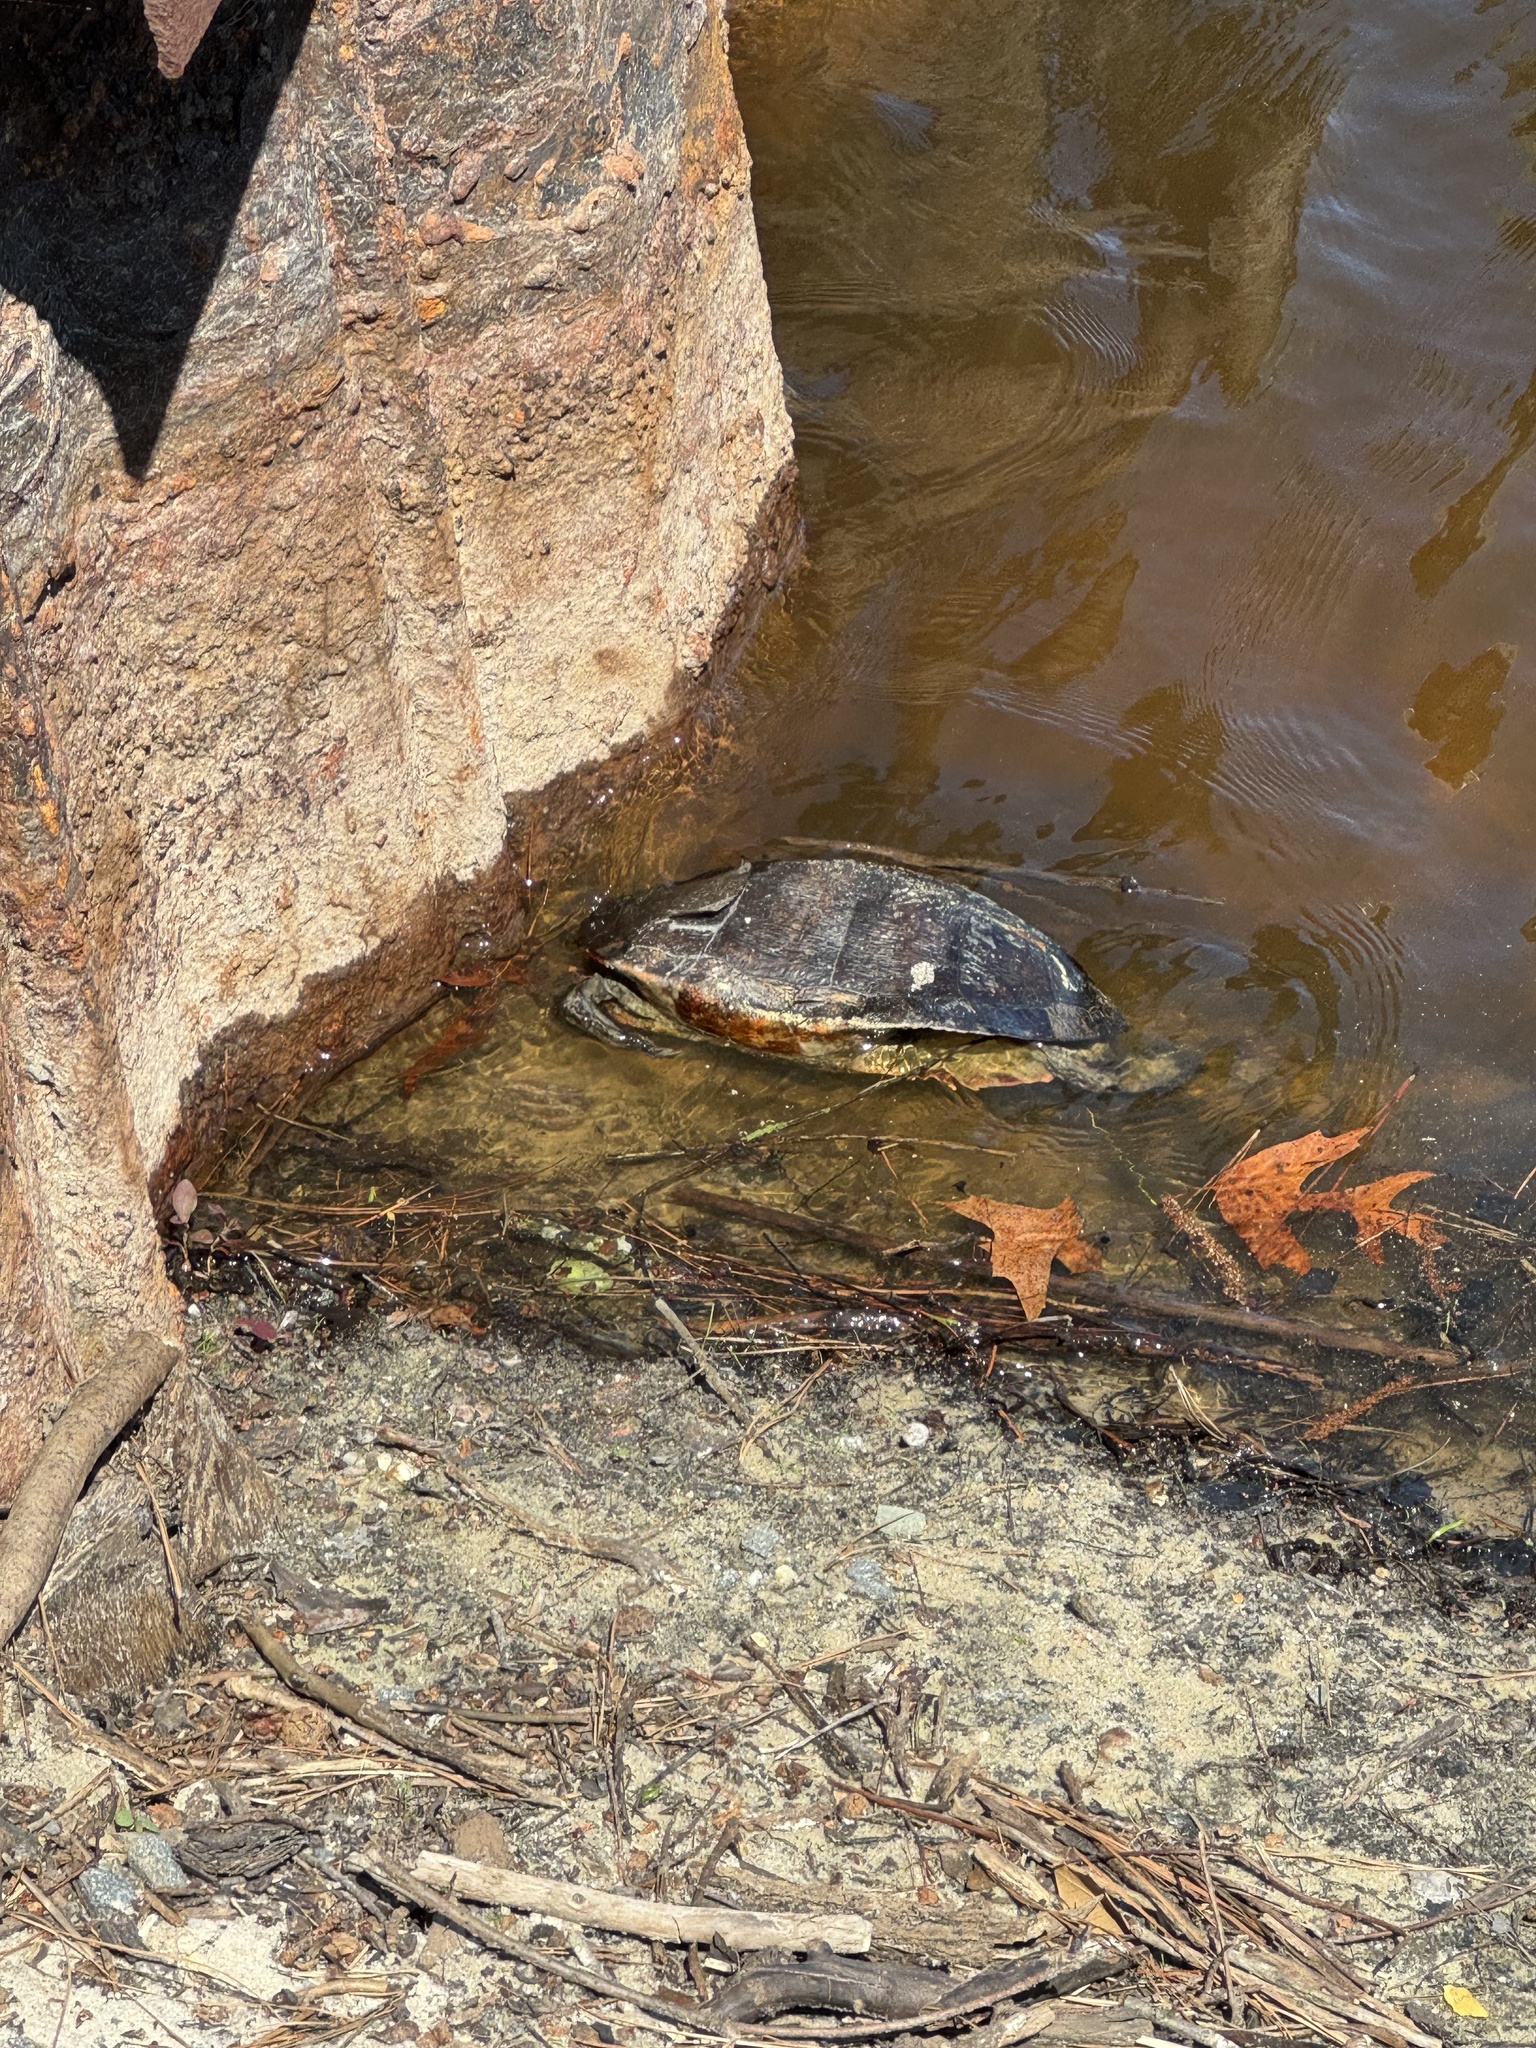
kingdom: Animalia
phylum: Chordata
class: Testudines
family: Emydidae
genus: Pseudemys
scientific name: Pseudemys rubriventris
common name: American red-bellied turtle
